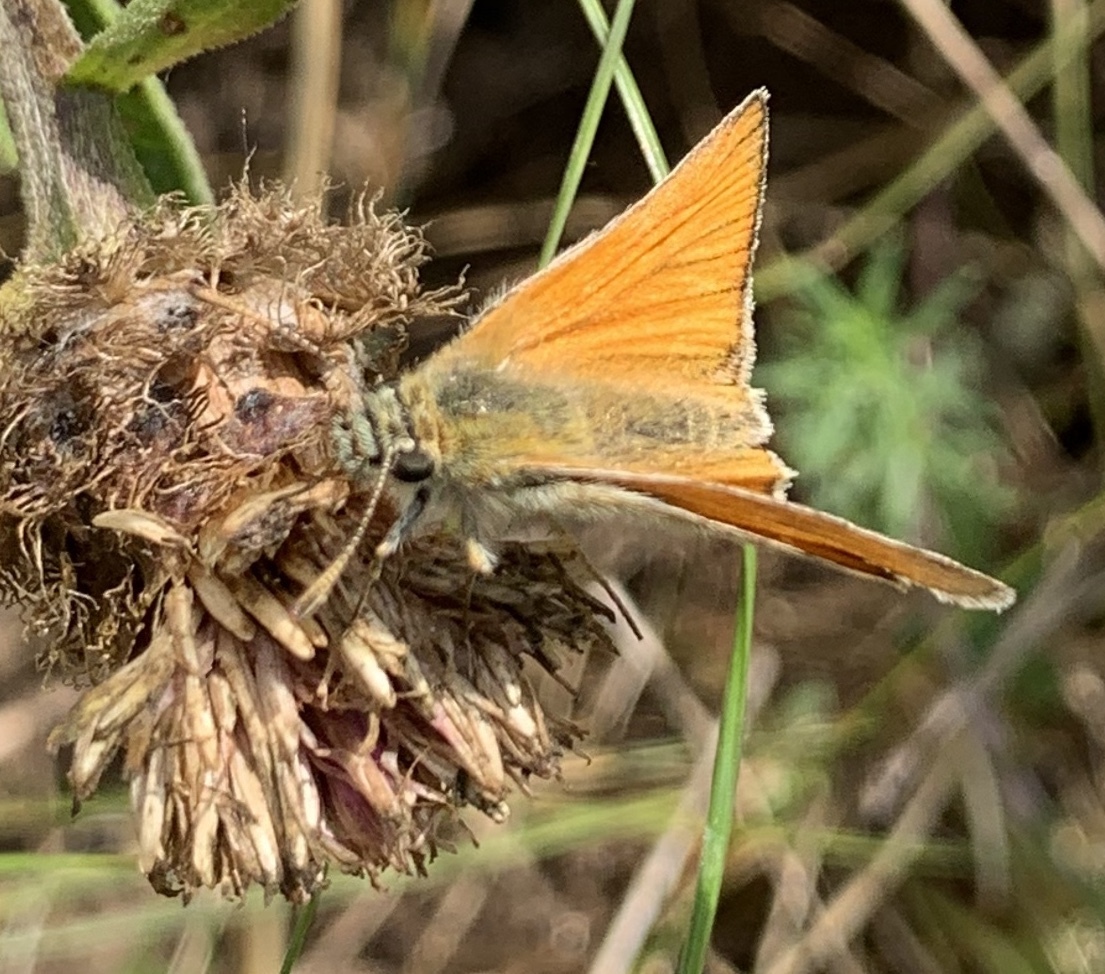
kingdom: Animalia
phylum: Arthropoda
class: Insecta
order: Lepidoptera
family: Hesperiidae
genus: Thymelicus
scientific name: Thymelicus
